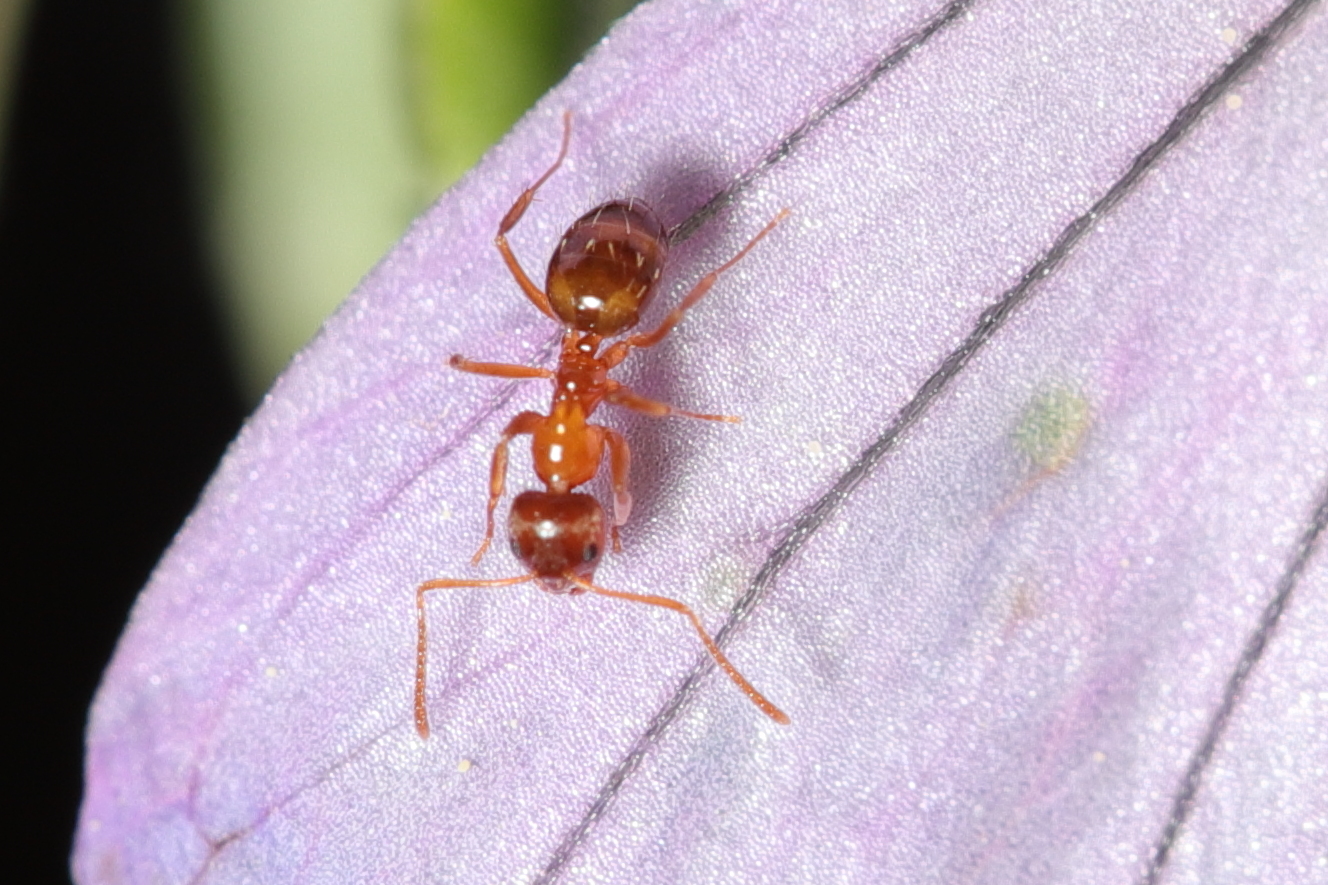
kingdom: Animalia
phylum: Arthropoda
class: Insecta
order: Hymenoptera
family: Formicidae
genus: Paratrechina
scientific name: Paratrechina flavipes
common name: Eastern asian formicine ant
